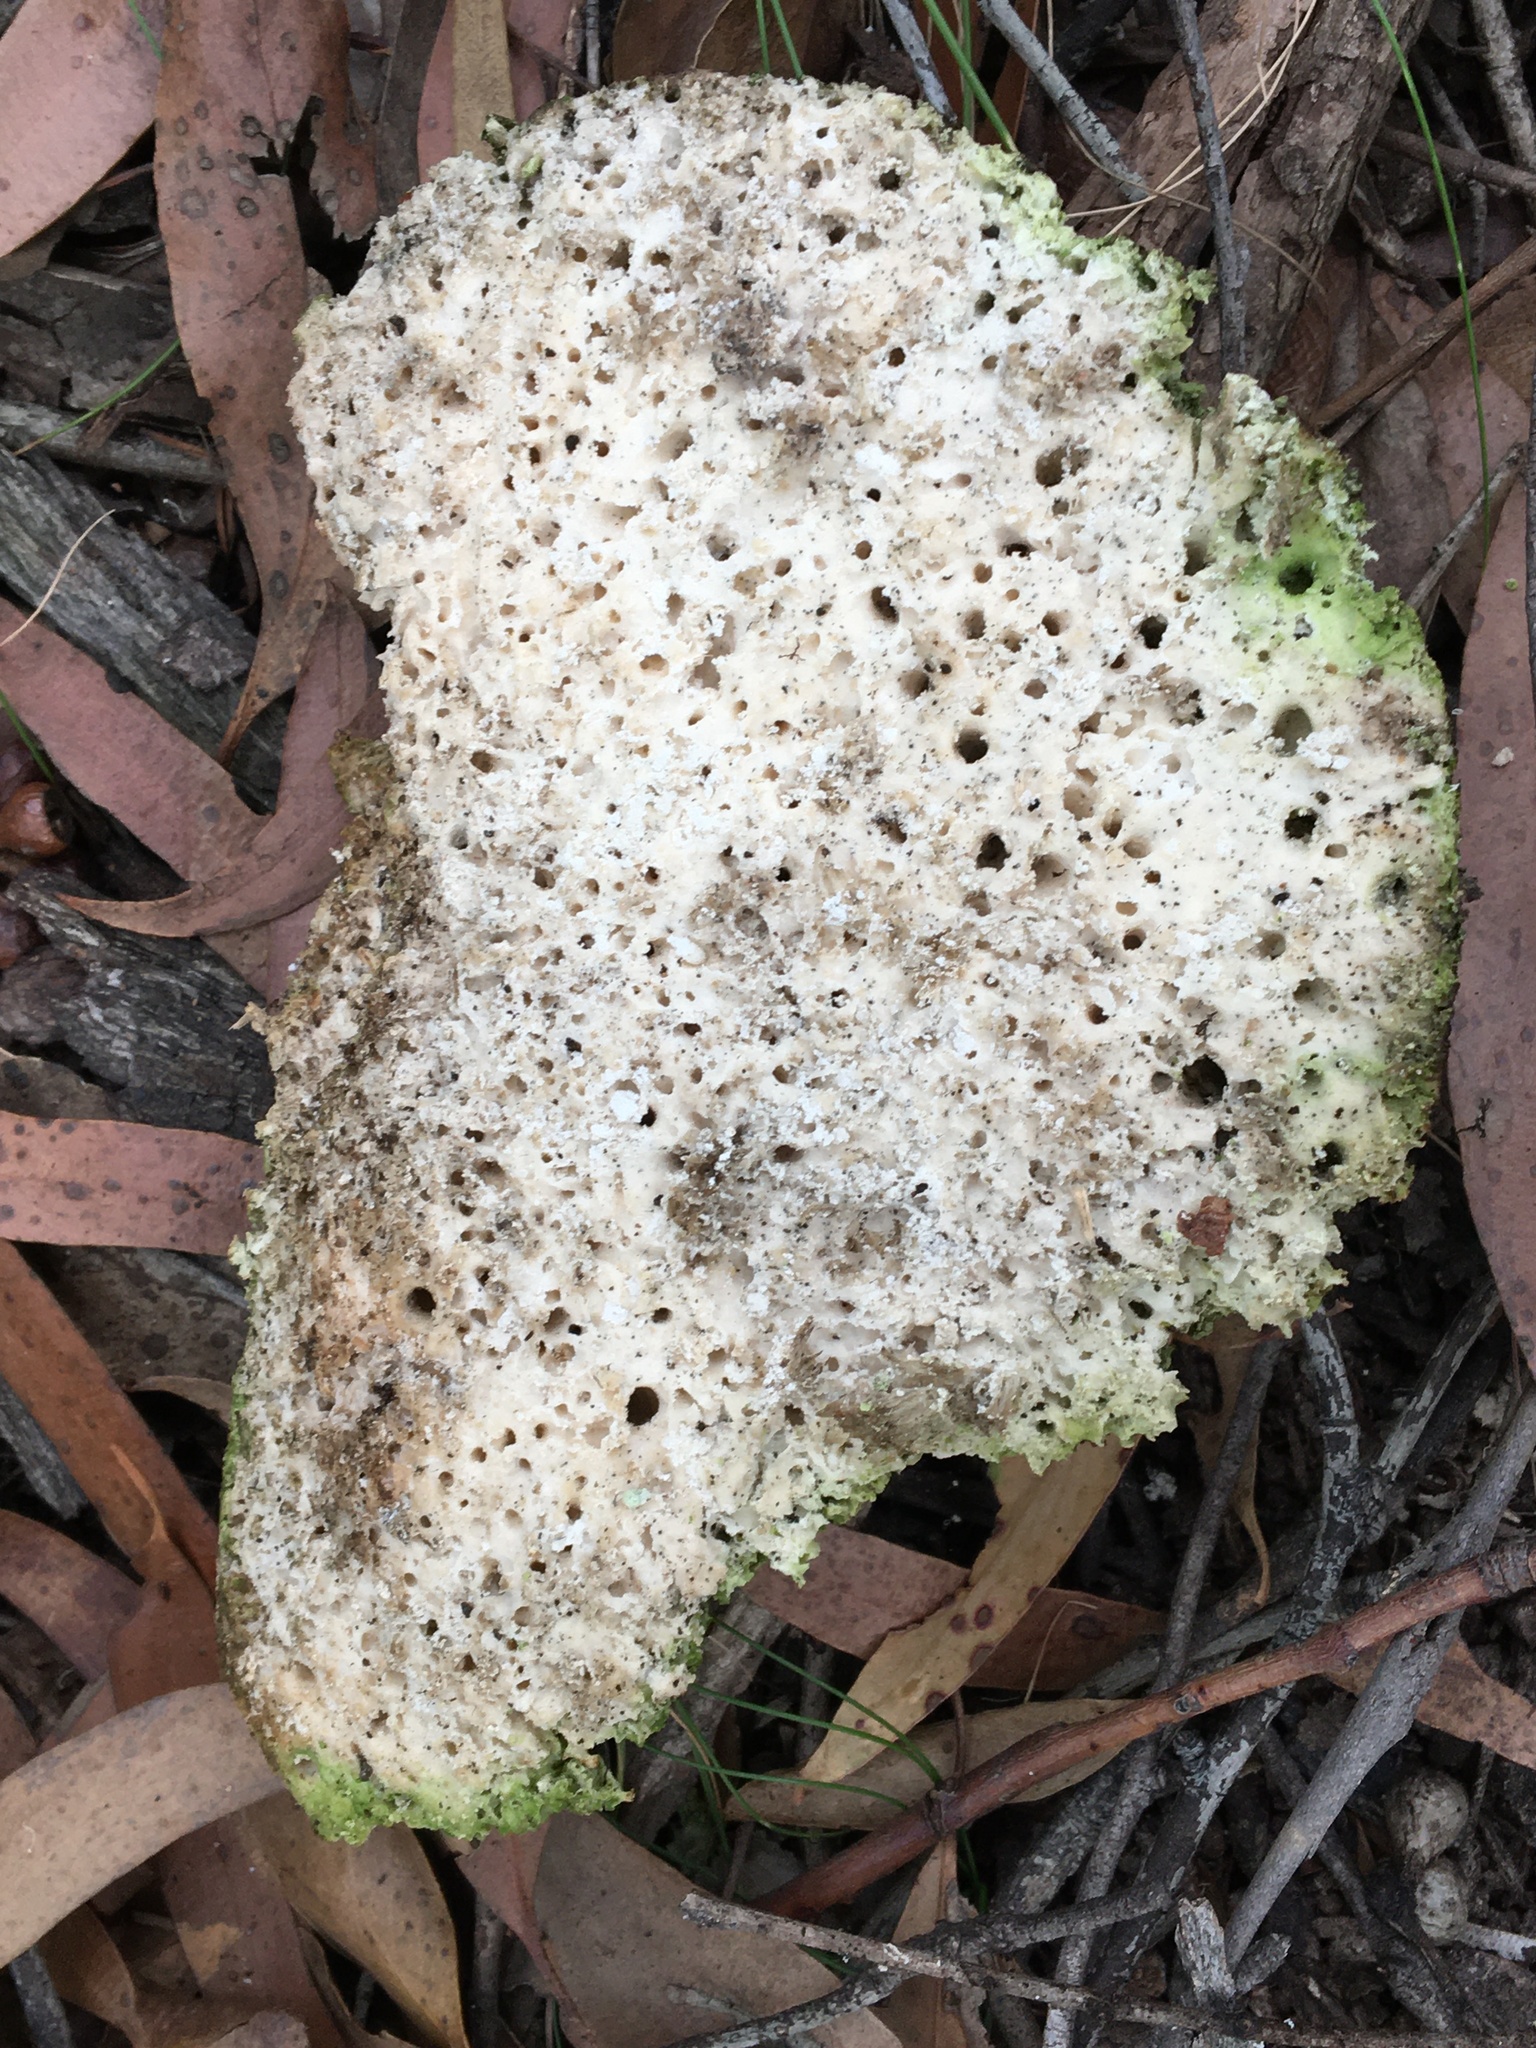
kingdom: Fungi
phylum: Basidiomycota
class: Agaricomycetes
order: Polyporales
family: Laetiporaceae
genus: Laetiporus
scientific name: Laetiporus portentosus
